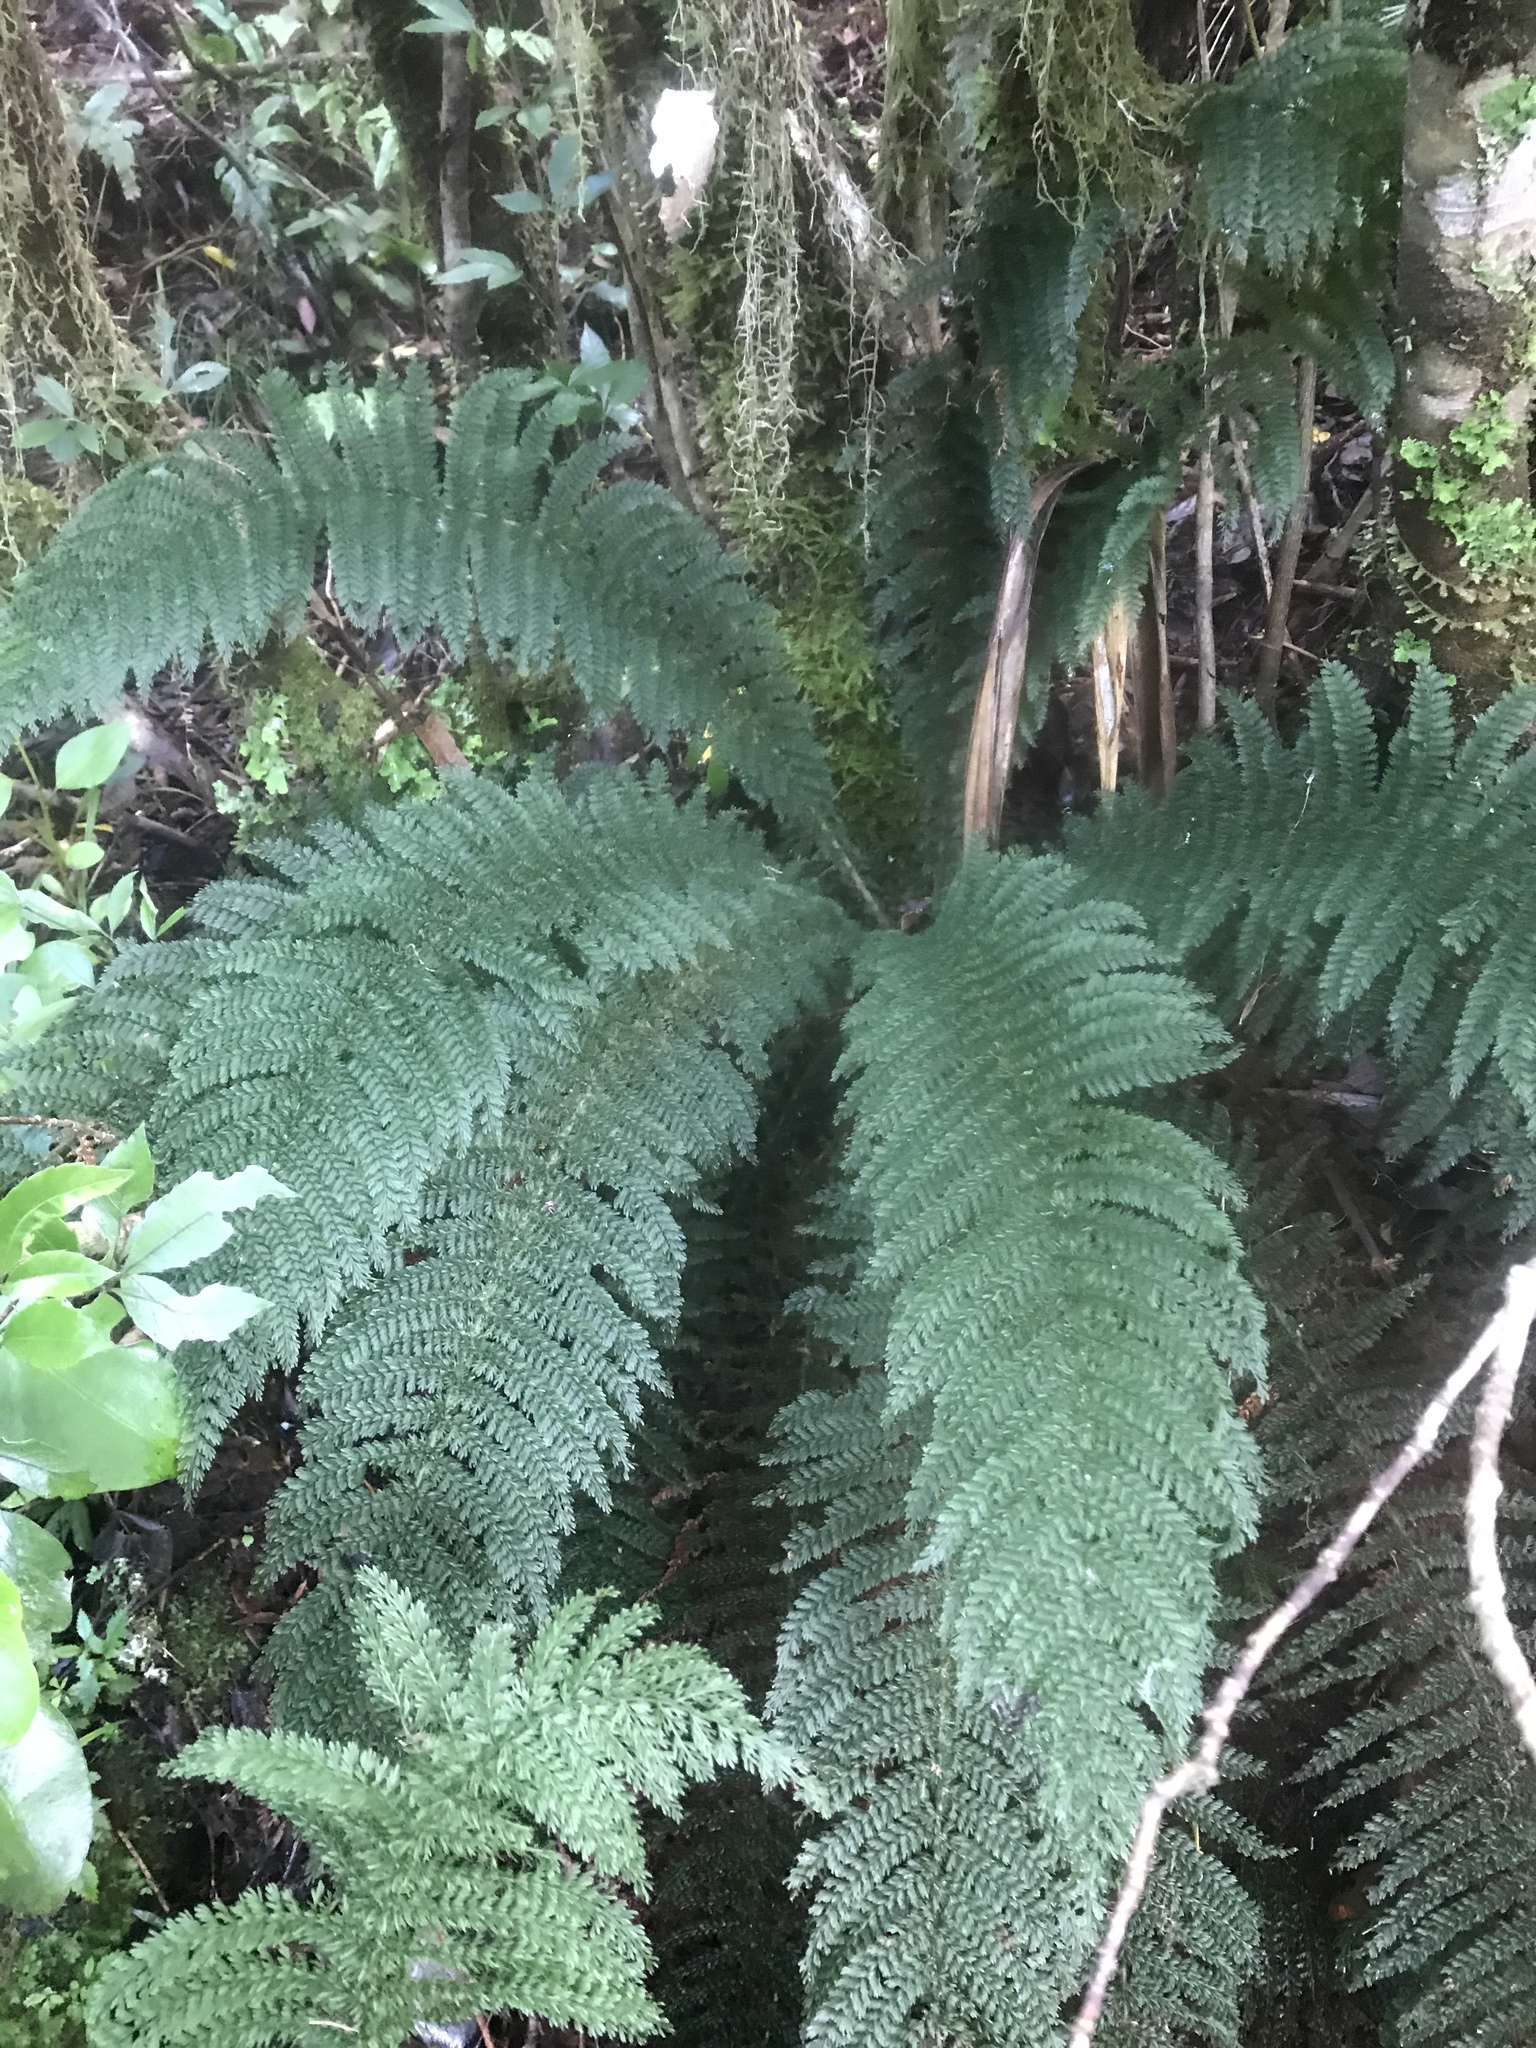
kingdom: Plantae
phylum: Tracheophyta
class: Polypodiopsida
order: Osmundales
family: Osmundaceae
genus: Leptopteris
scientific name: Leptopteris superba
